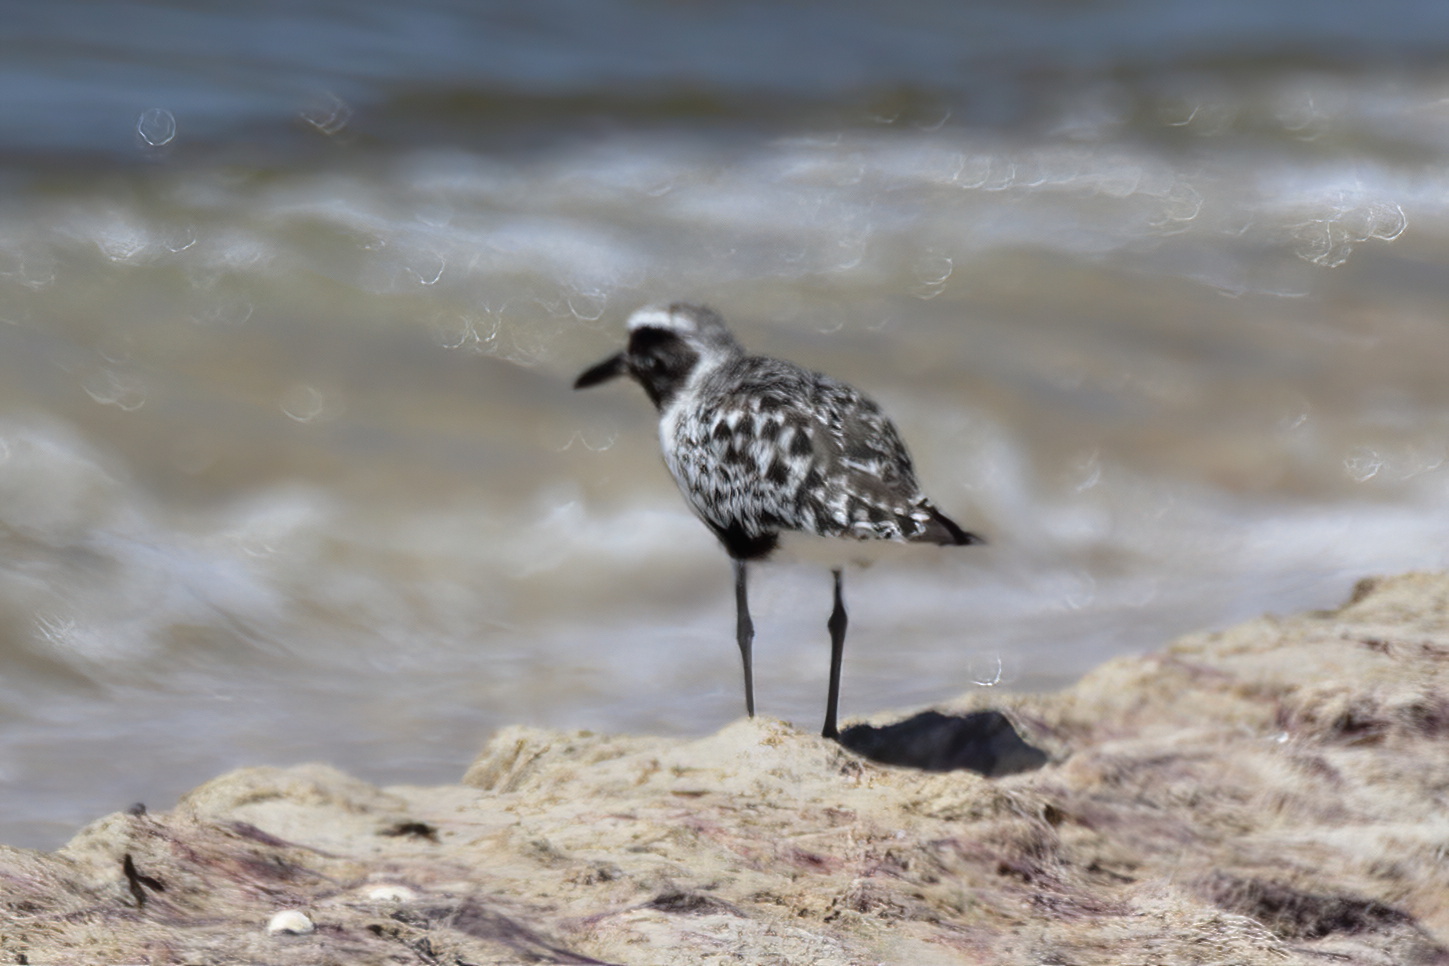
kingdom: Animalia
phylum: Chordata
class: Aves
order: Charadriiformes
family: Charadriidae
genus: Pluvialis
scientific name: Pluvialis squatarola
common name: Grey plover
